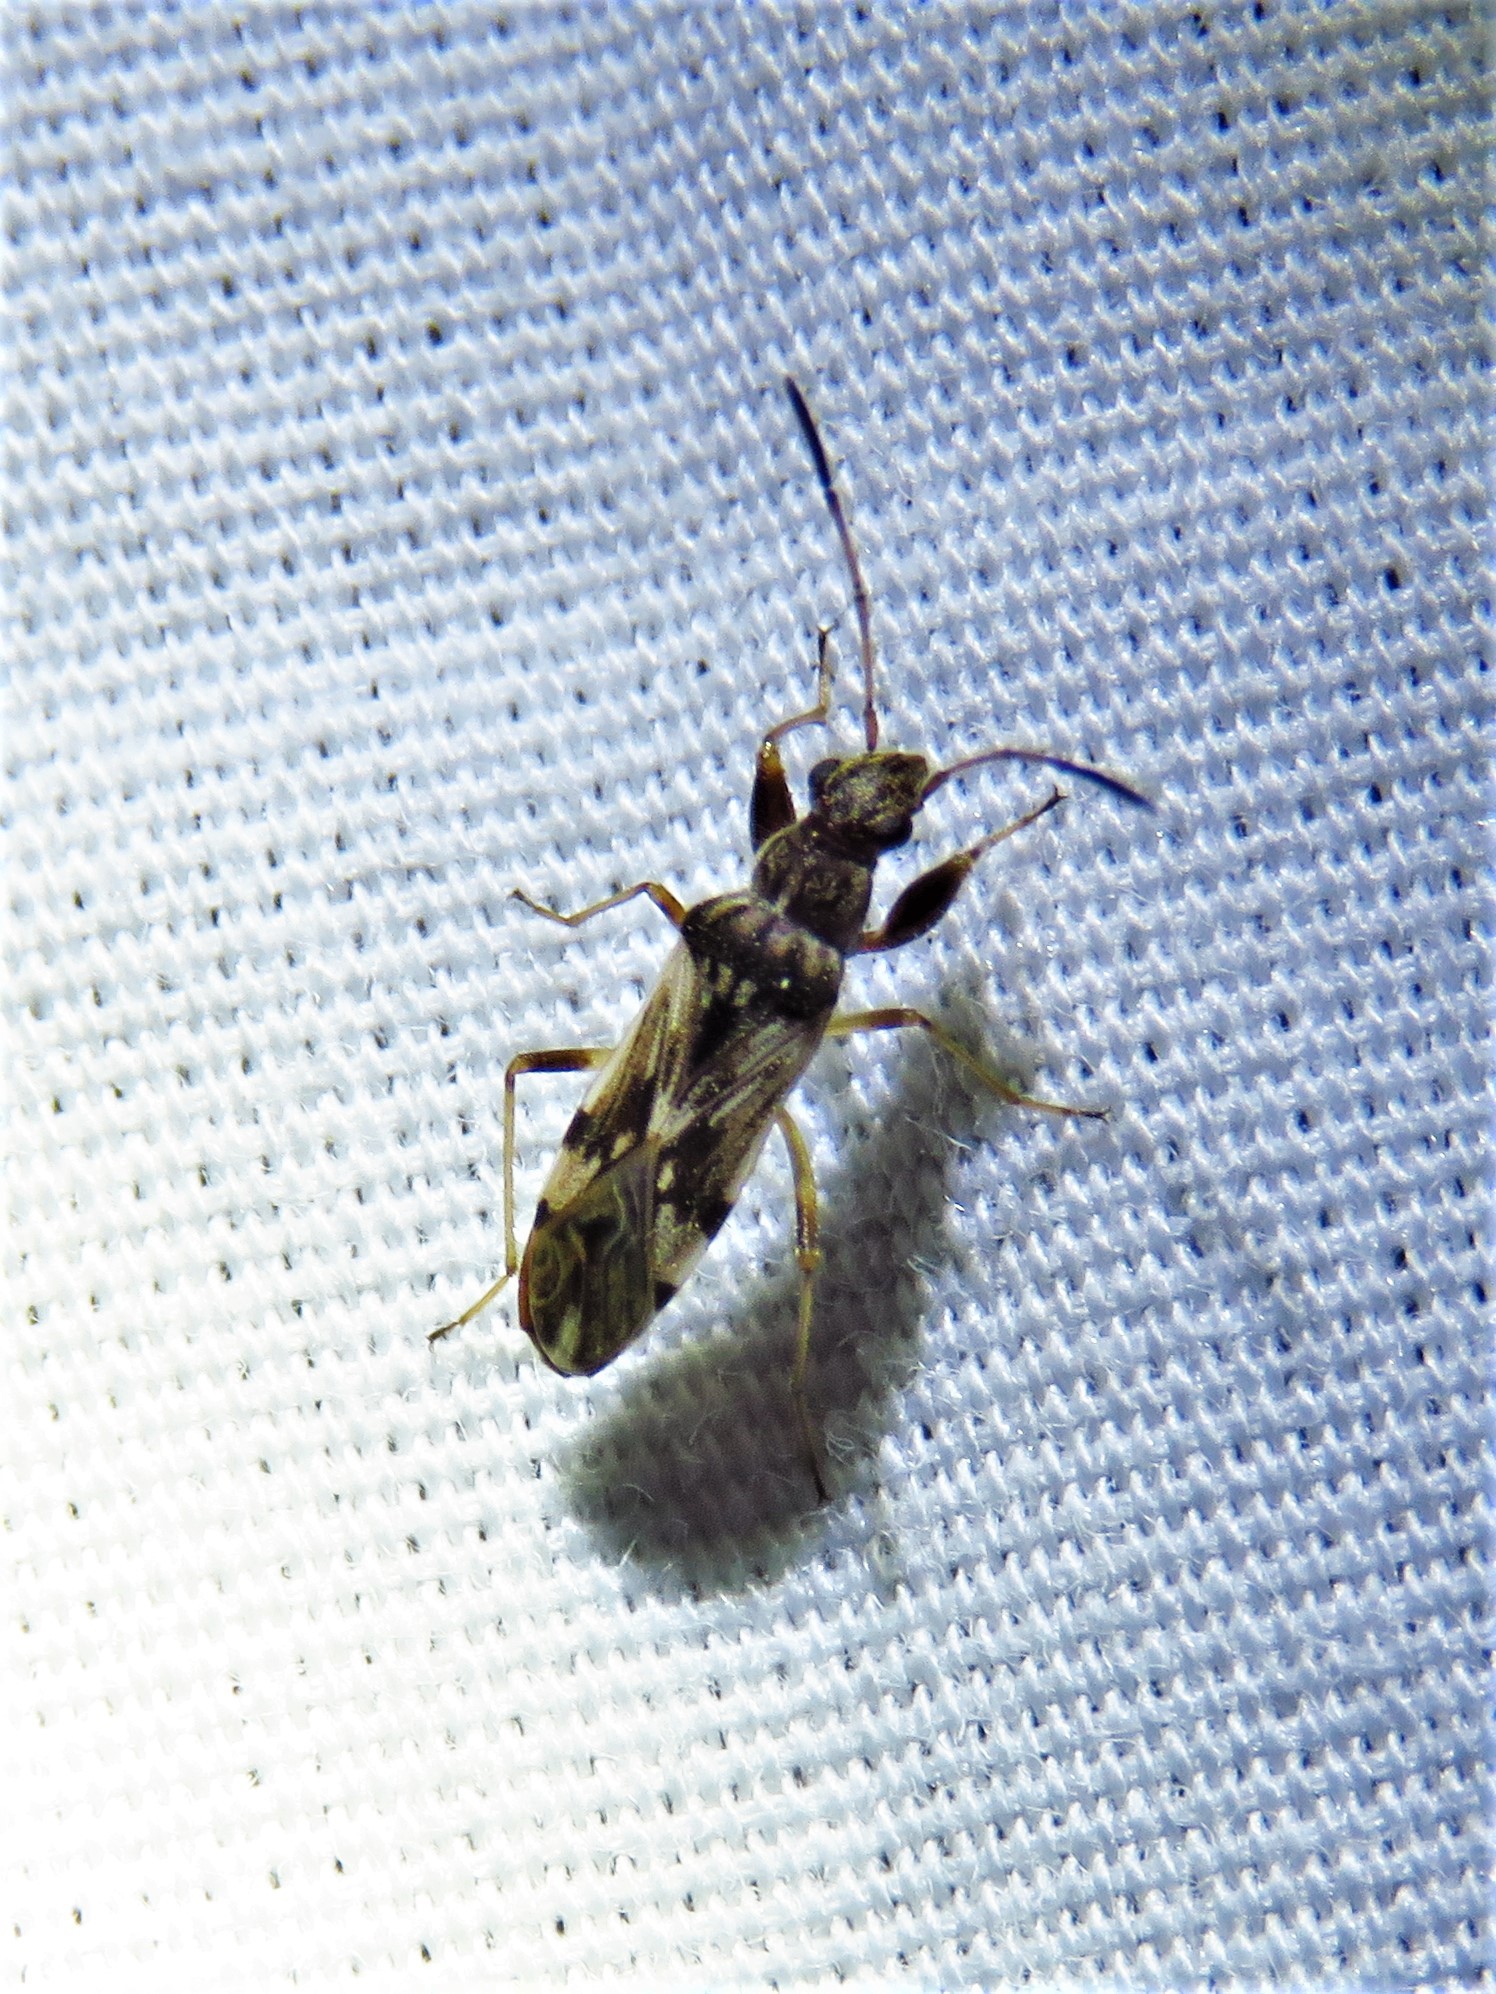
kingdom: Animalia
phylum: Arthropoda
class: Insecta
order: Hemiptera
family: Rhyparochromidae
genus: Neopamera
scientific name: Neopamera bilobata
